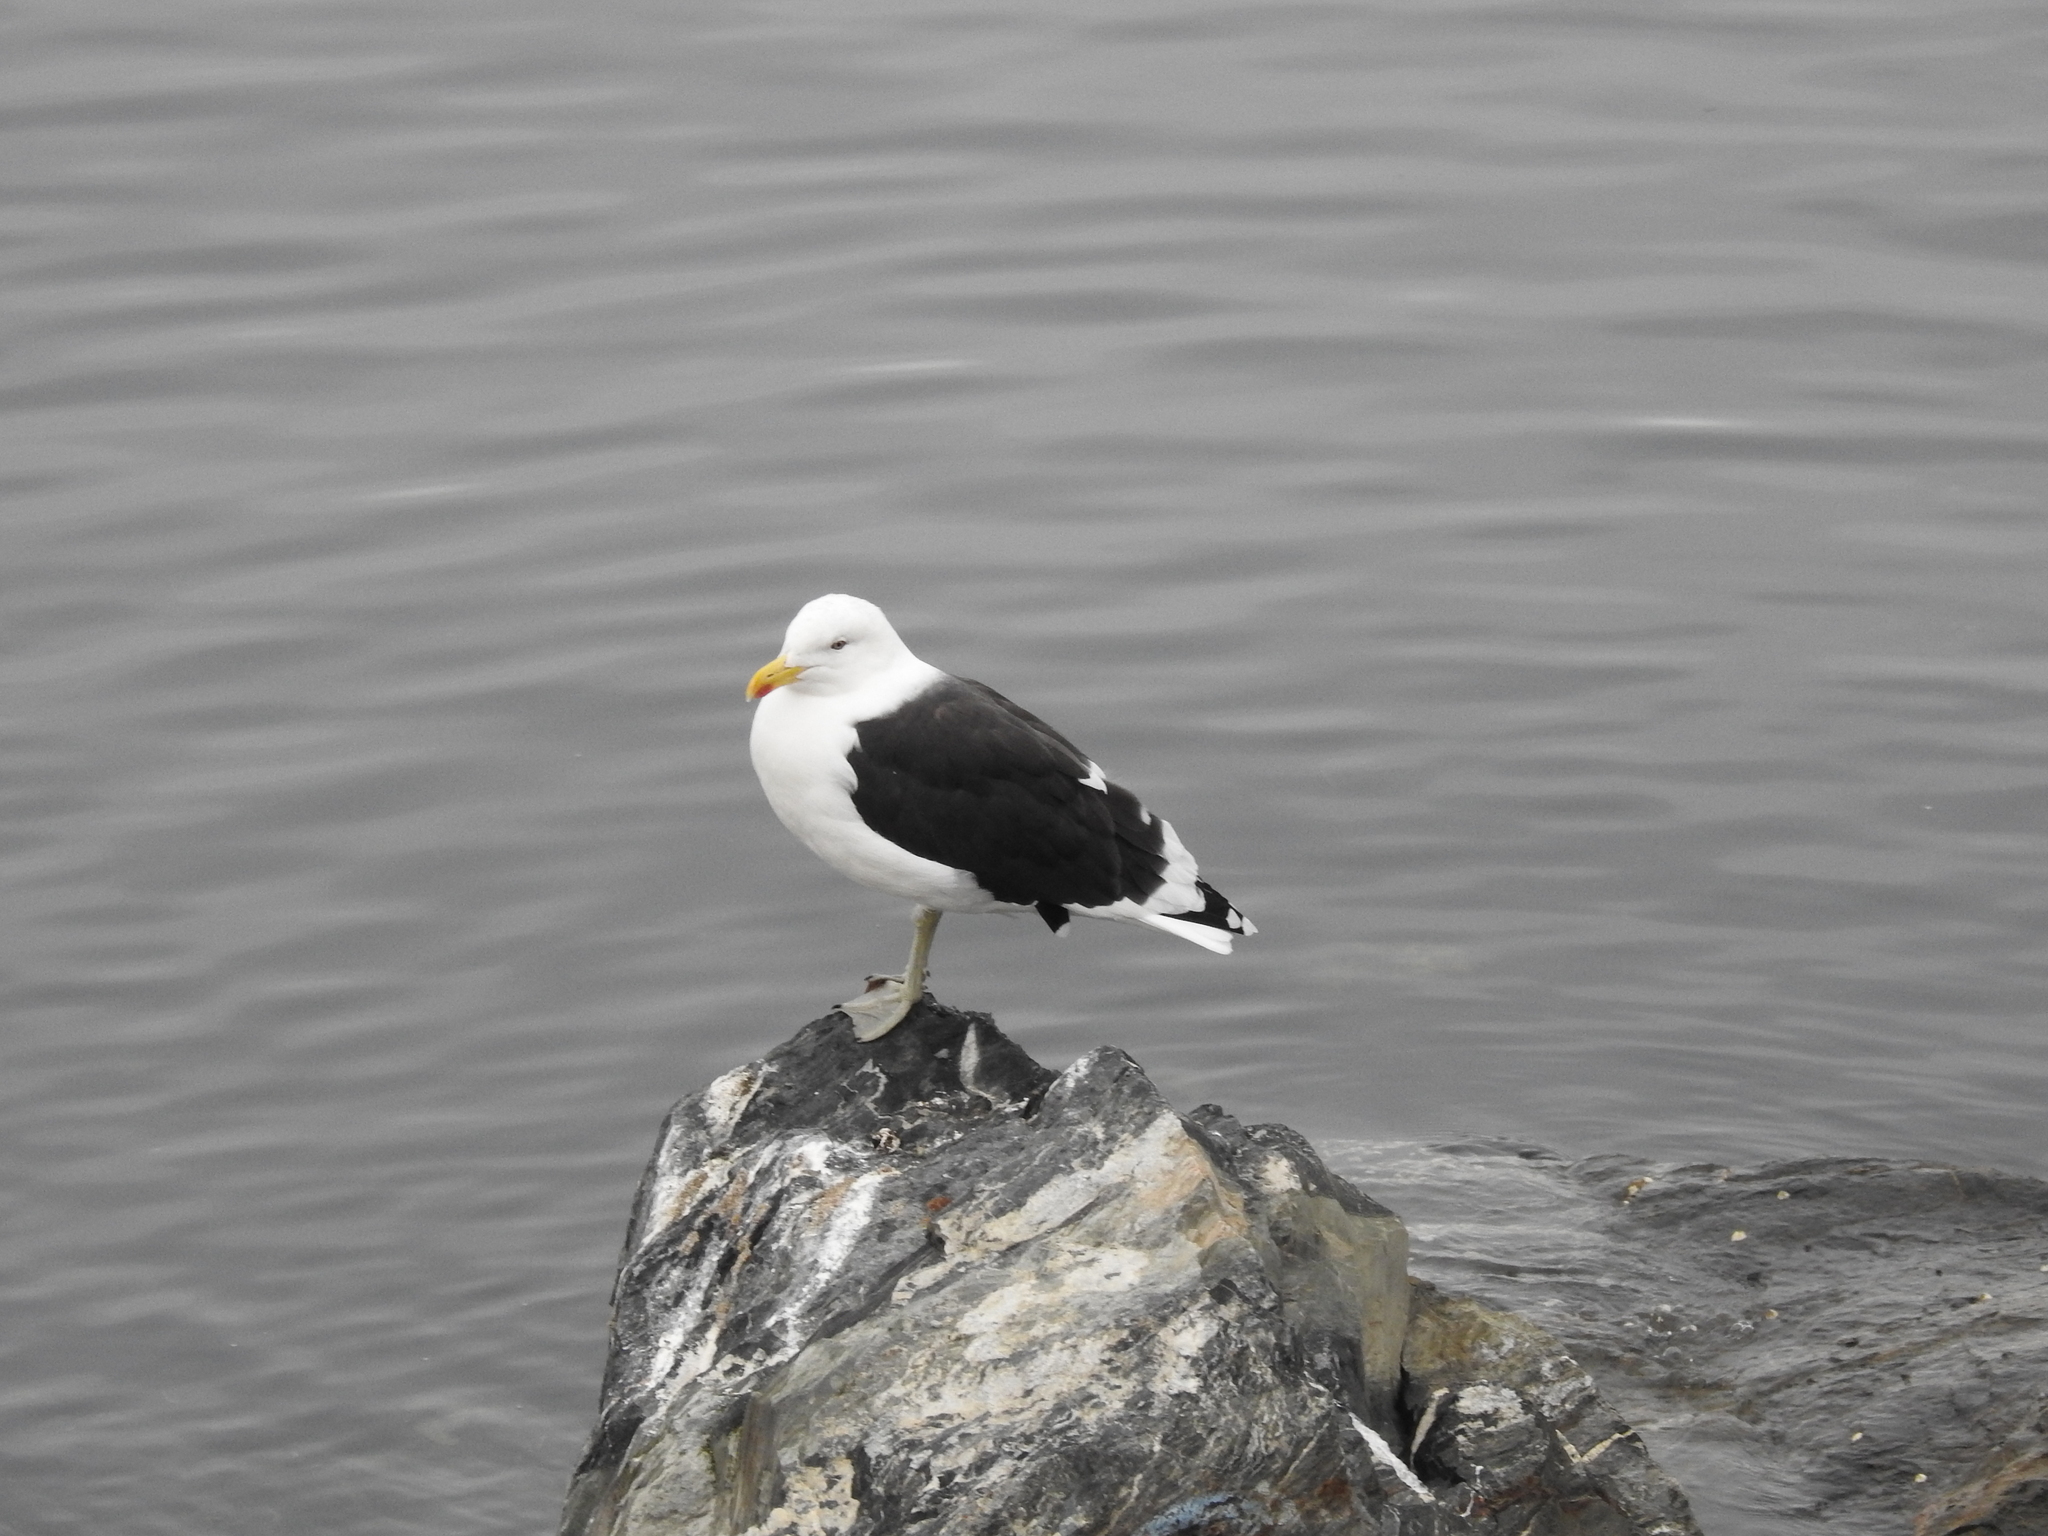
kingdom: Animalia
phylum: Chordata
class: Aves
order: Charadriiformes
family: Laridae
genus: Larus
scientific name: Larus dominicanus
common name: Kelp gull
